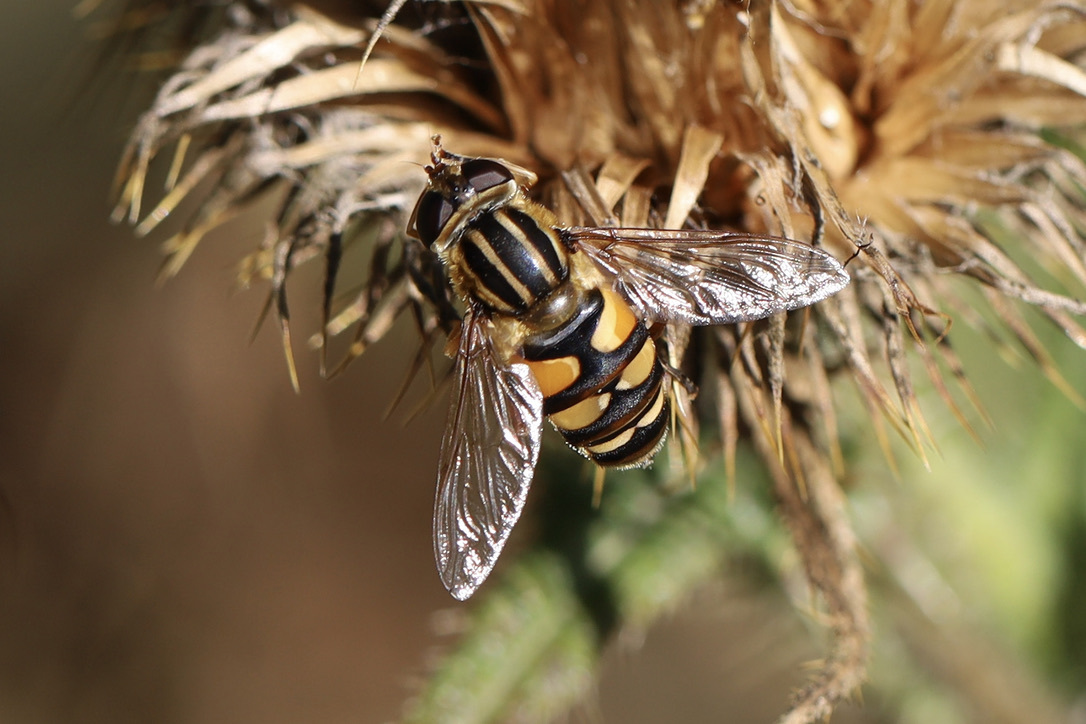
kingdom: Animalia
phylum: Arthropoda
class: Insecta
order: Diptera
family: Syrphidae
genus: Helophilus
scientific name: Helophilus fasciatus
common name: Narrow-headed marsh fly
